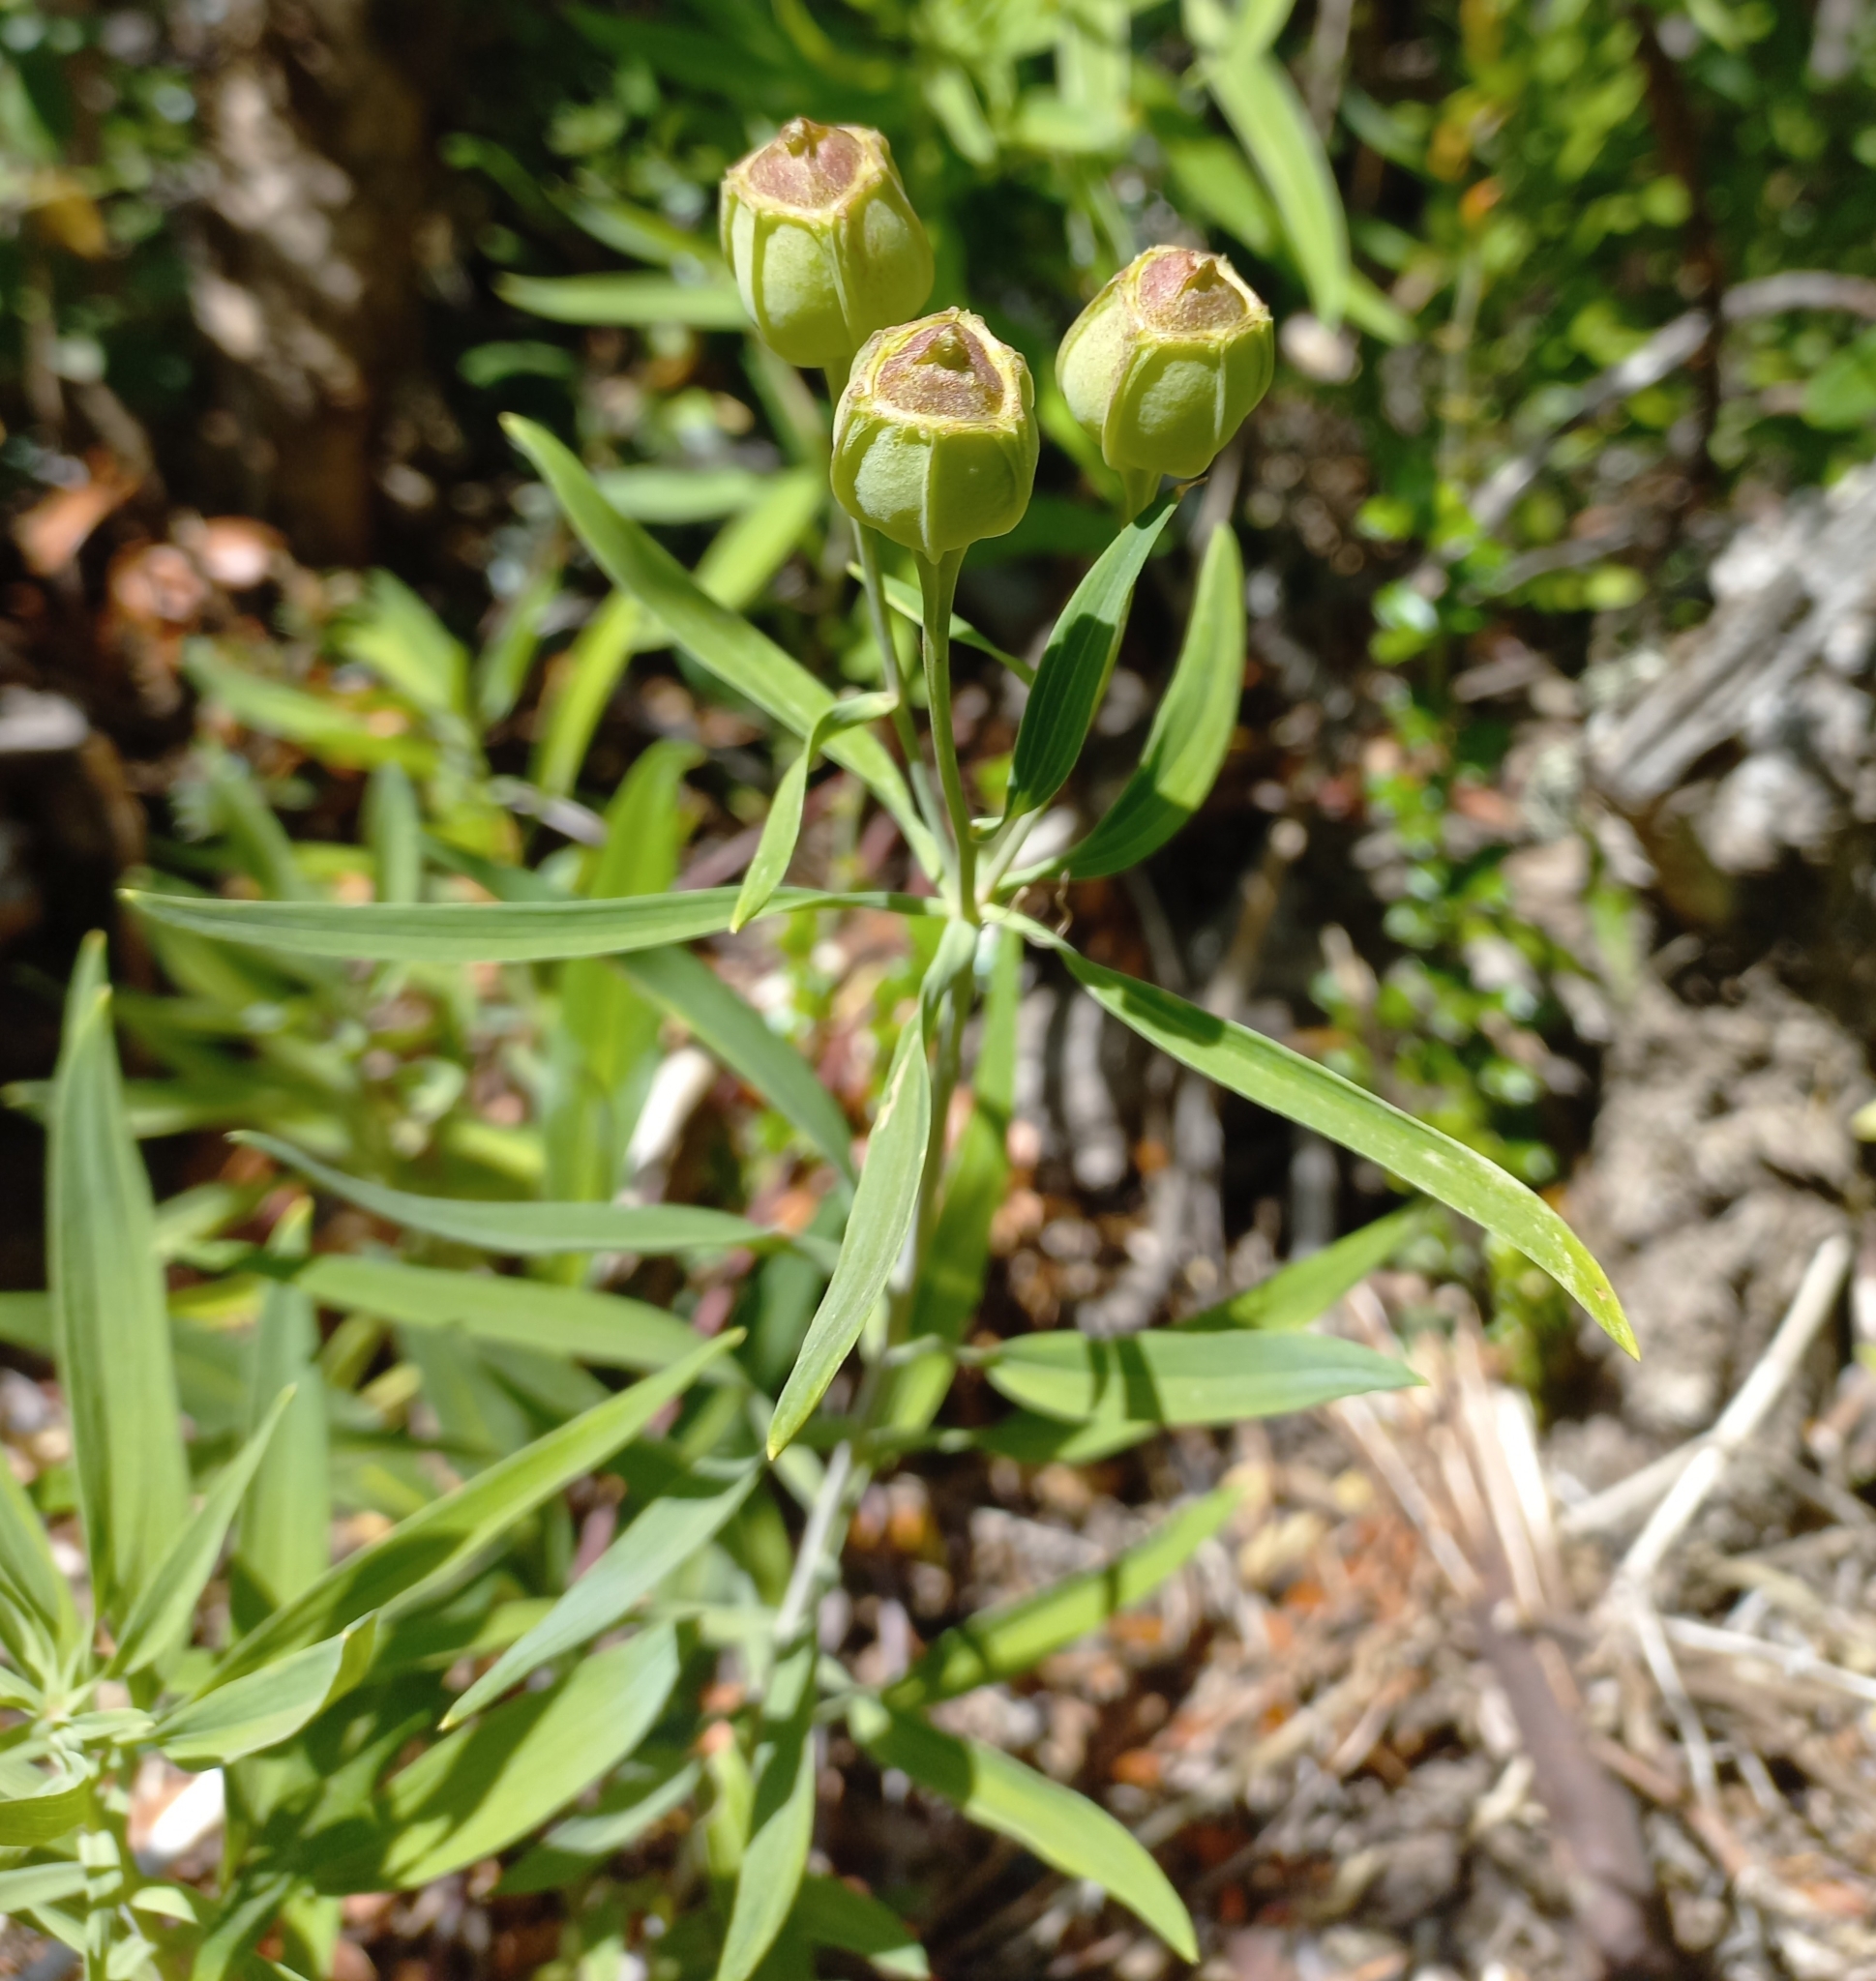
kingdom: Plantae
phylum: Tracheophyta
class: Liliopsida
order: Liliales
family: Alstroemeriaceae
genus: Alstroemeria
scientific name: Alstroemeria aurea
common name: Peruvian lily
